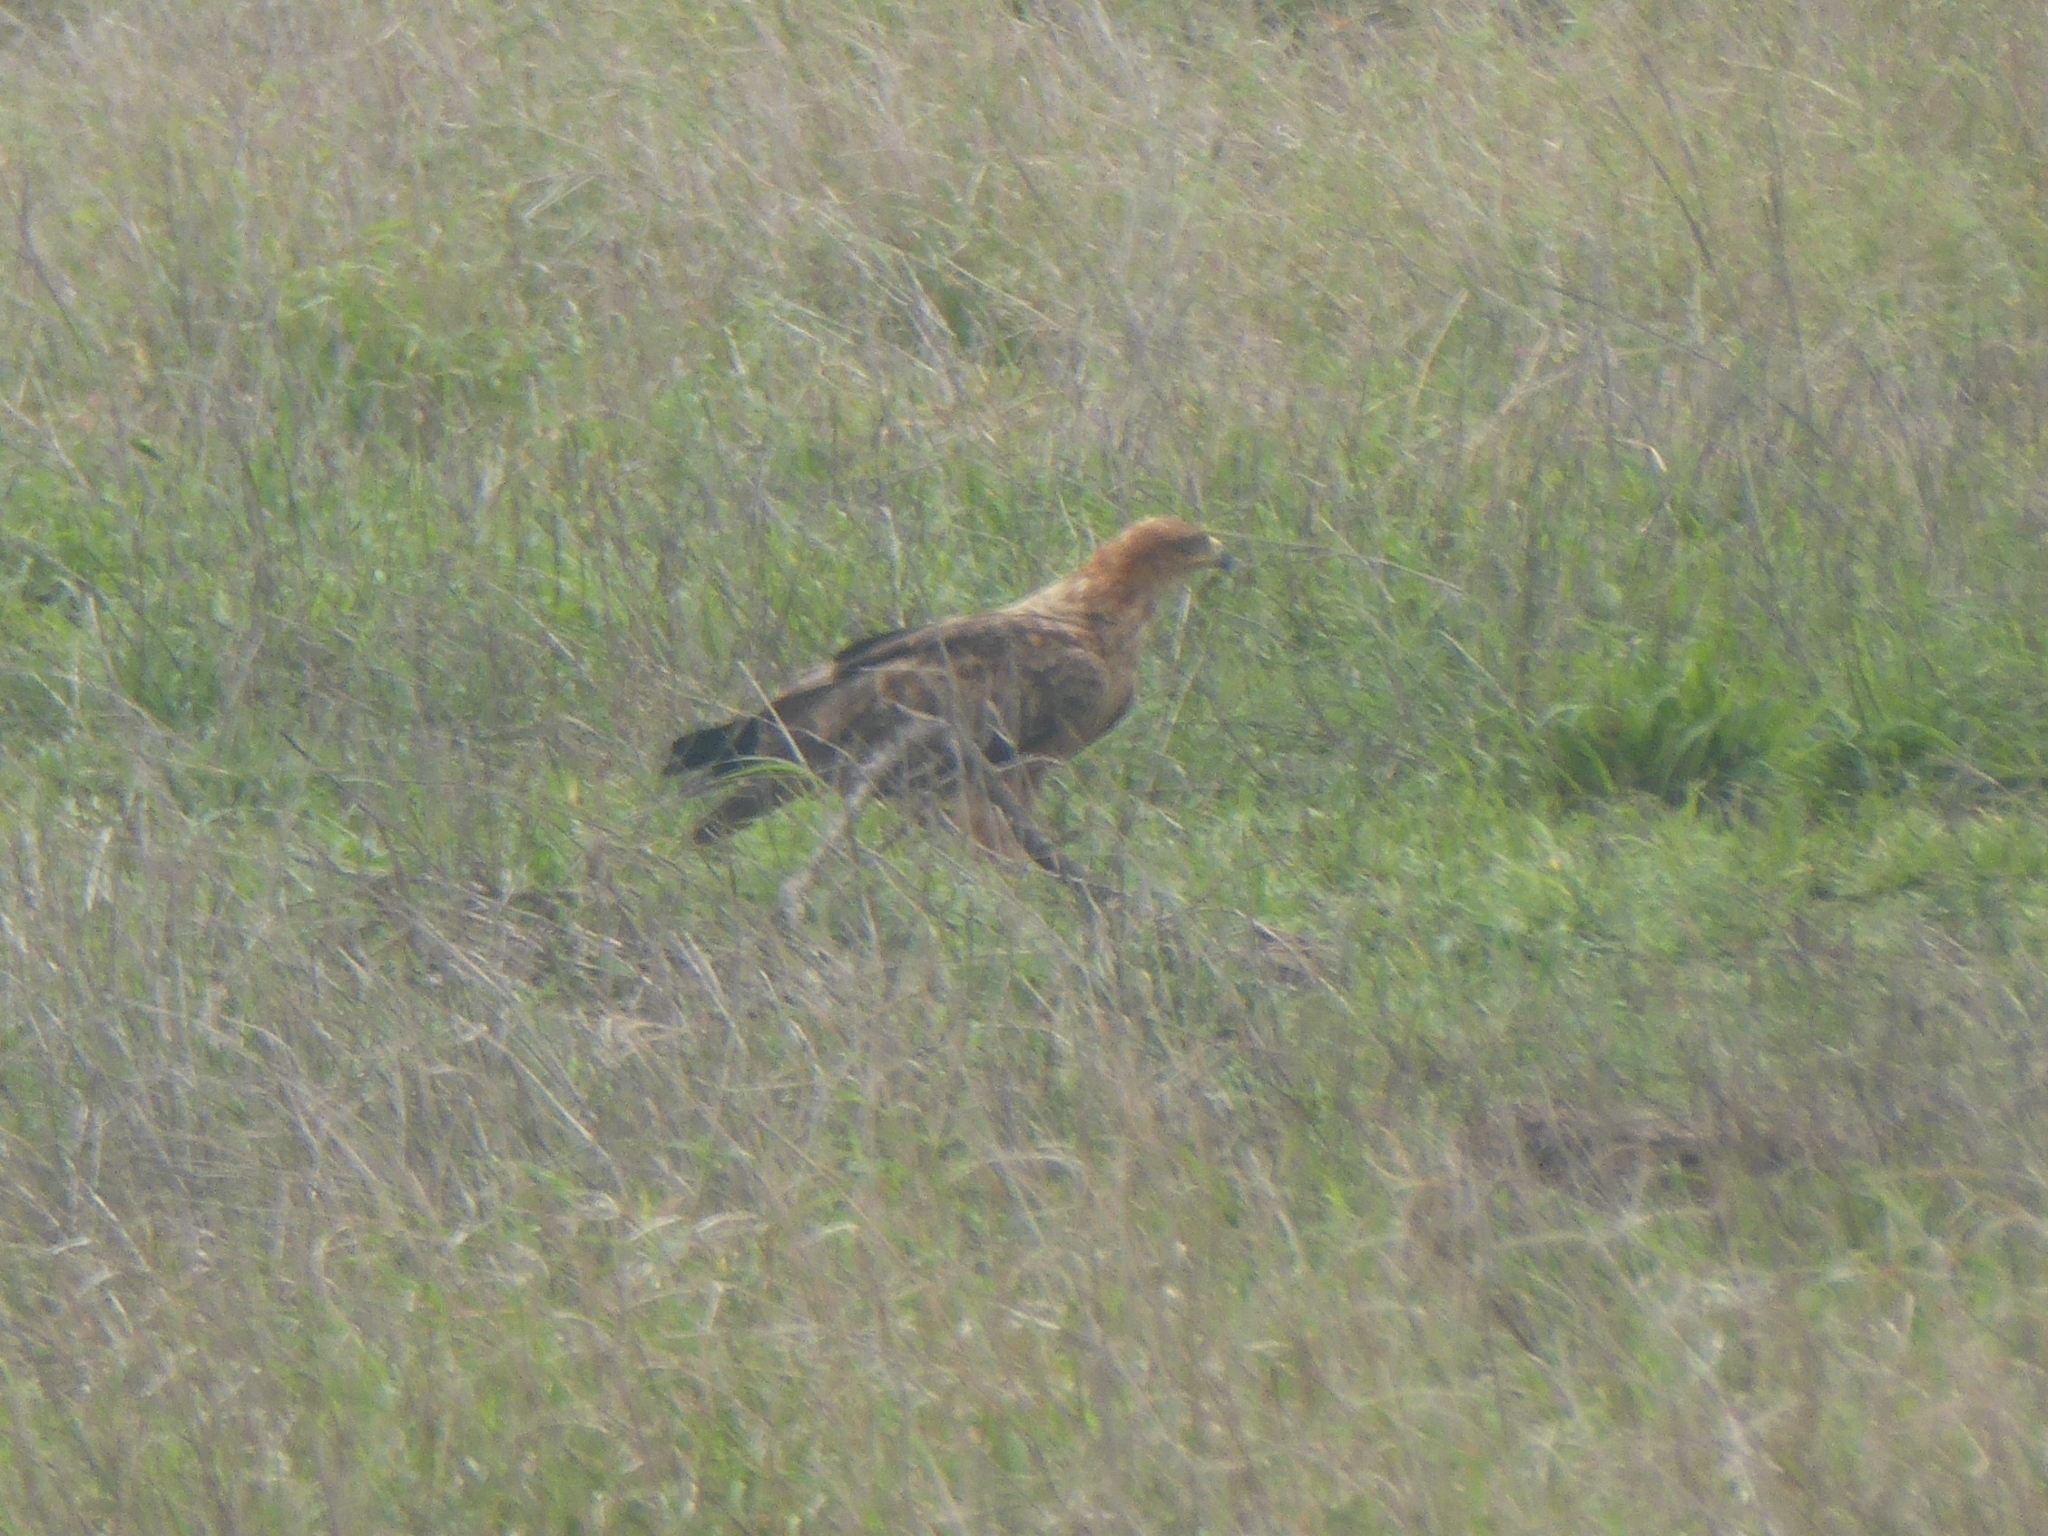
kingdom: Animalia
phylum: Chordata
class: Aves
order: Accipitriformes
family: Accipitridae
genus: Aquila
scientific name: Aquila rapax
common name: Tawny eagle
